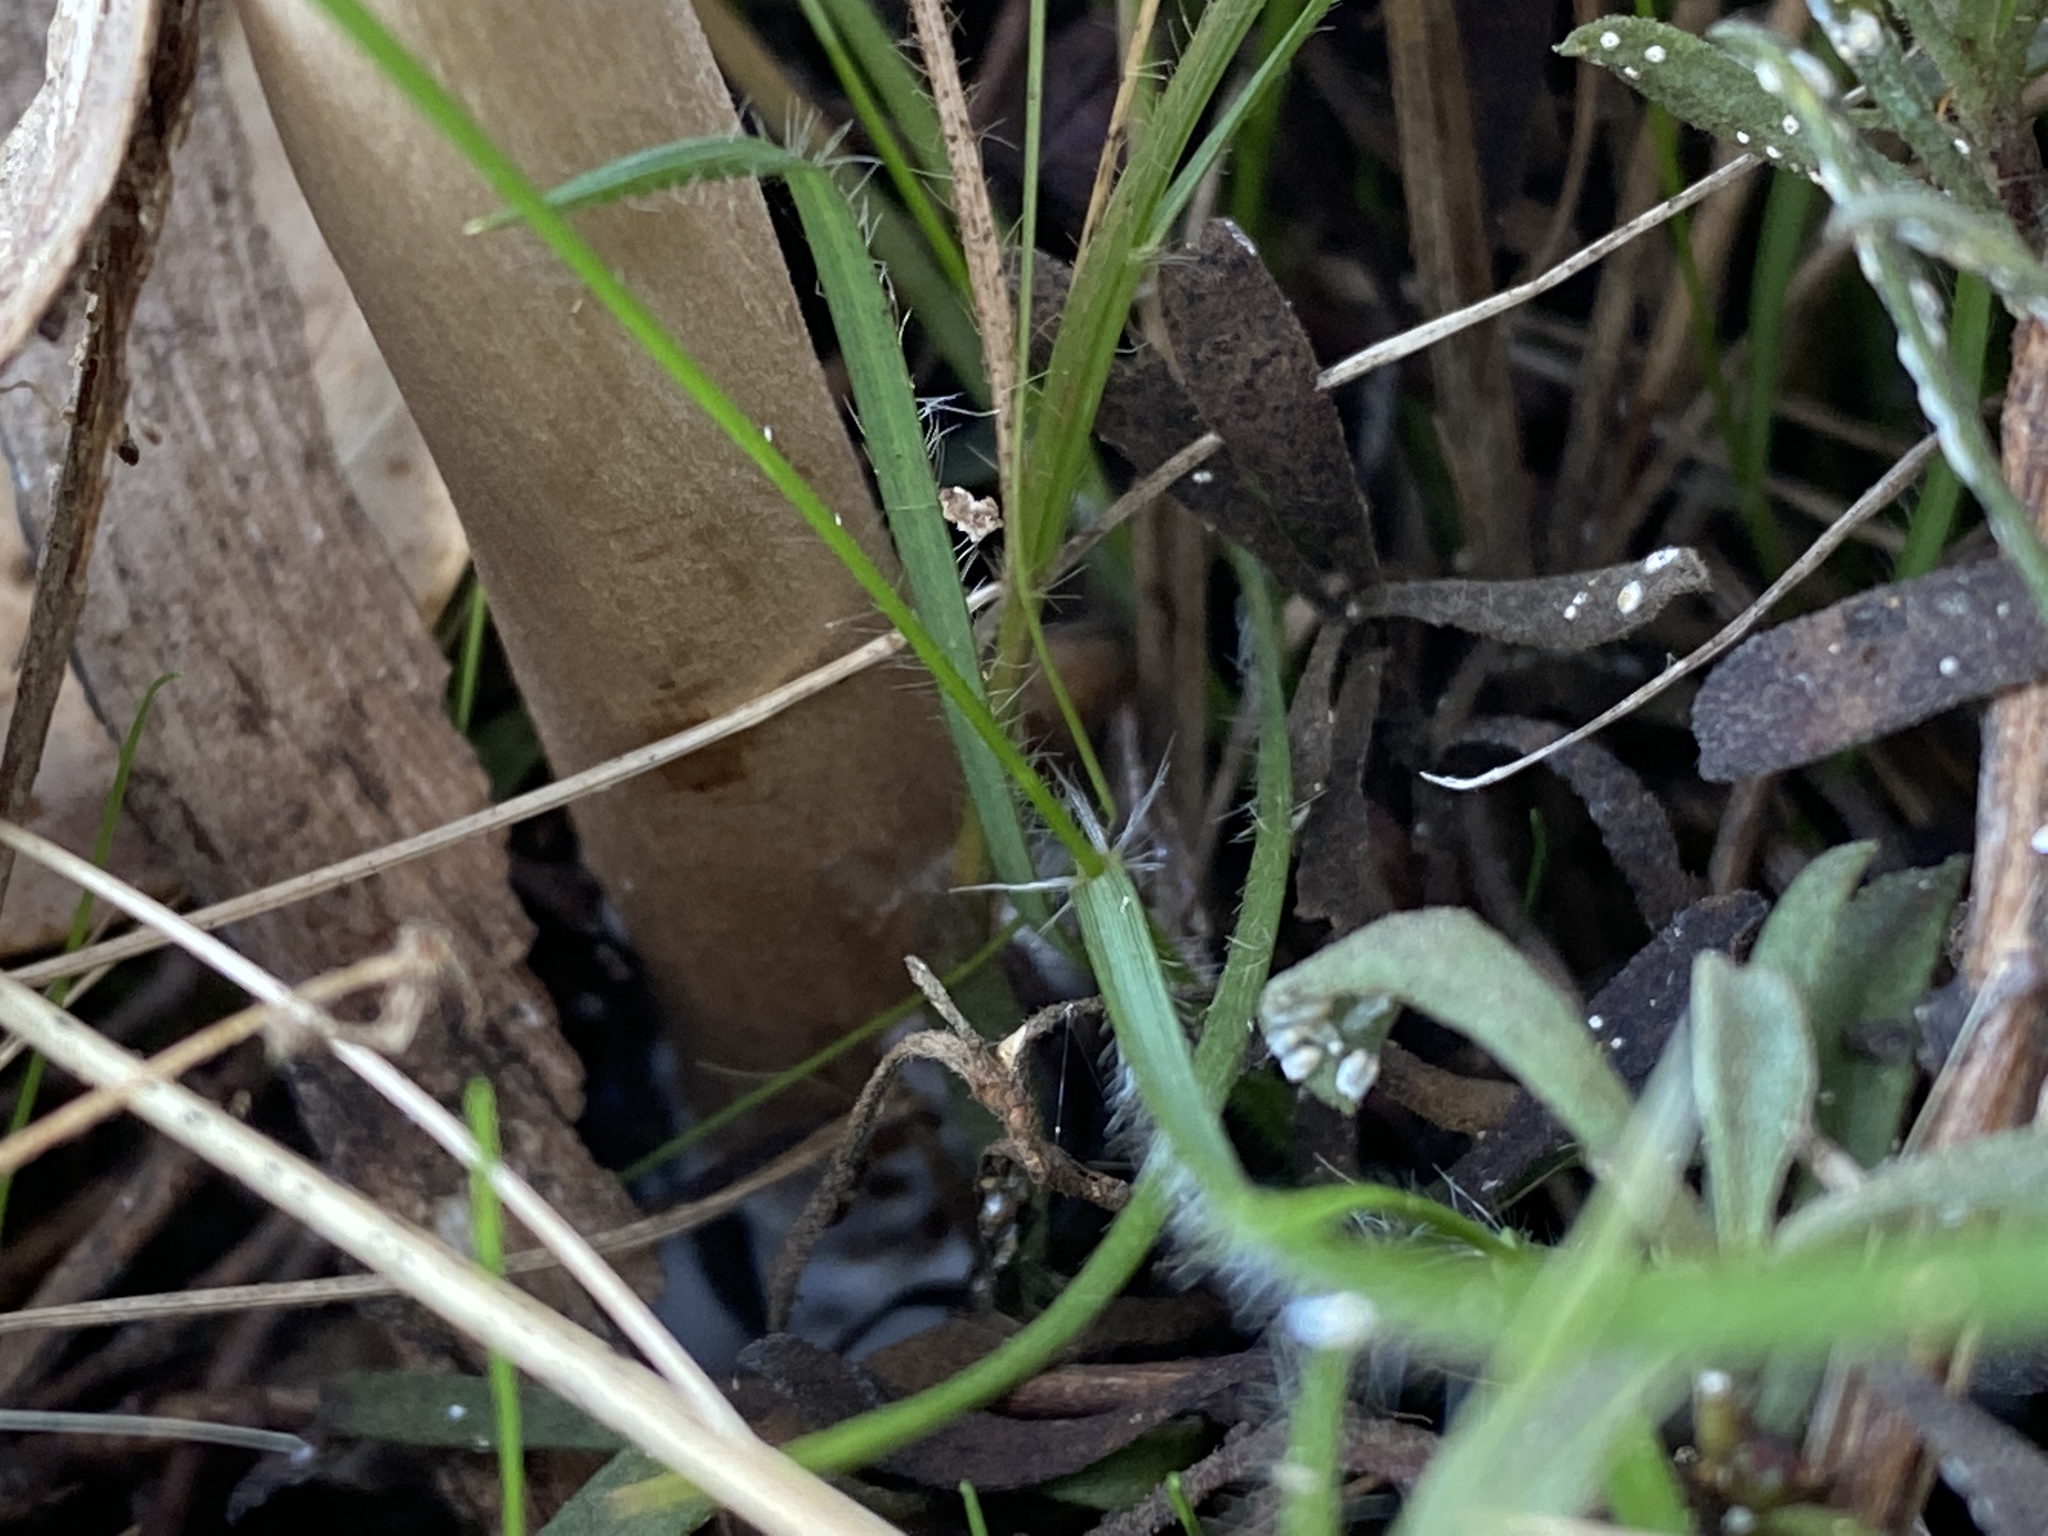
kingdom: Fungi
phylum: Basidiomycota
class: Agaricomycetes
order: Agaricales
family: Agaricaceae
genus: Macrolepiota
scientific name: Macrolepiota clelandii
